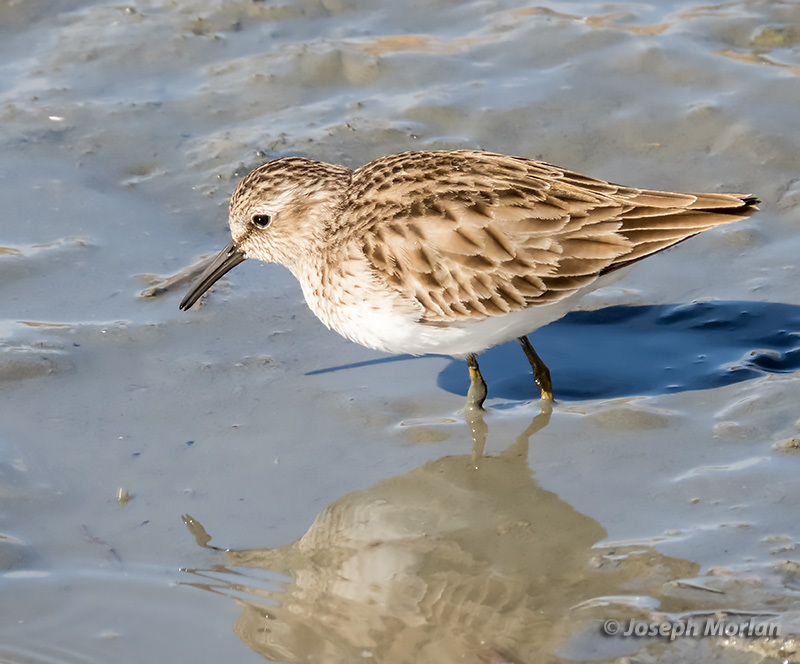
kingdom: Animalia
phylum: Chordata
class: Aves
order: Charadriiformes
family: Scolopacidae
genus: Calidris
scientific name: Calidris minutilla
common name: Least sandpiper
